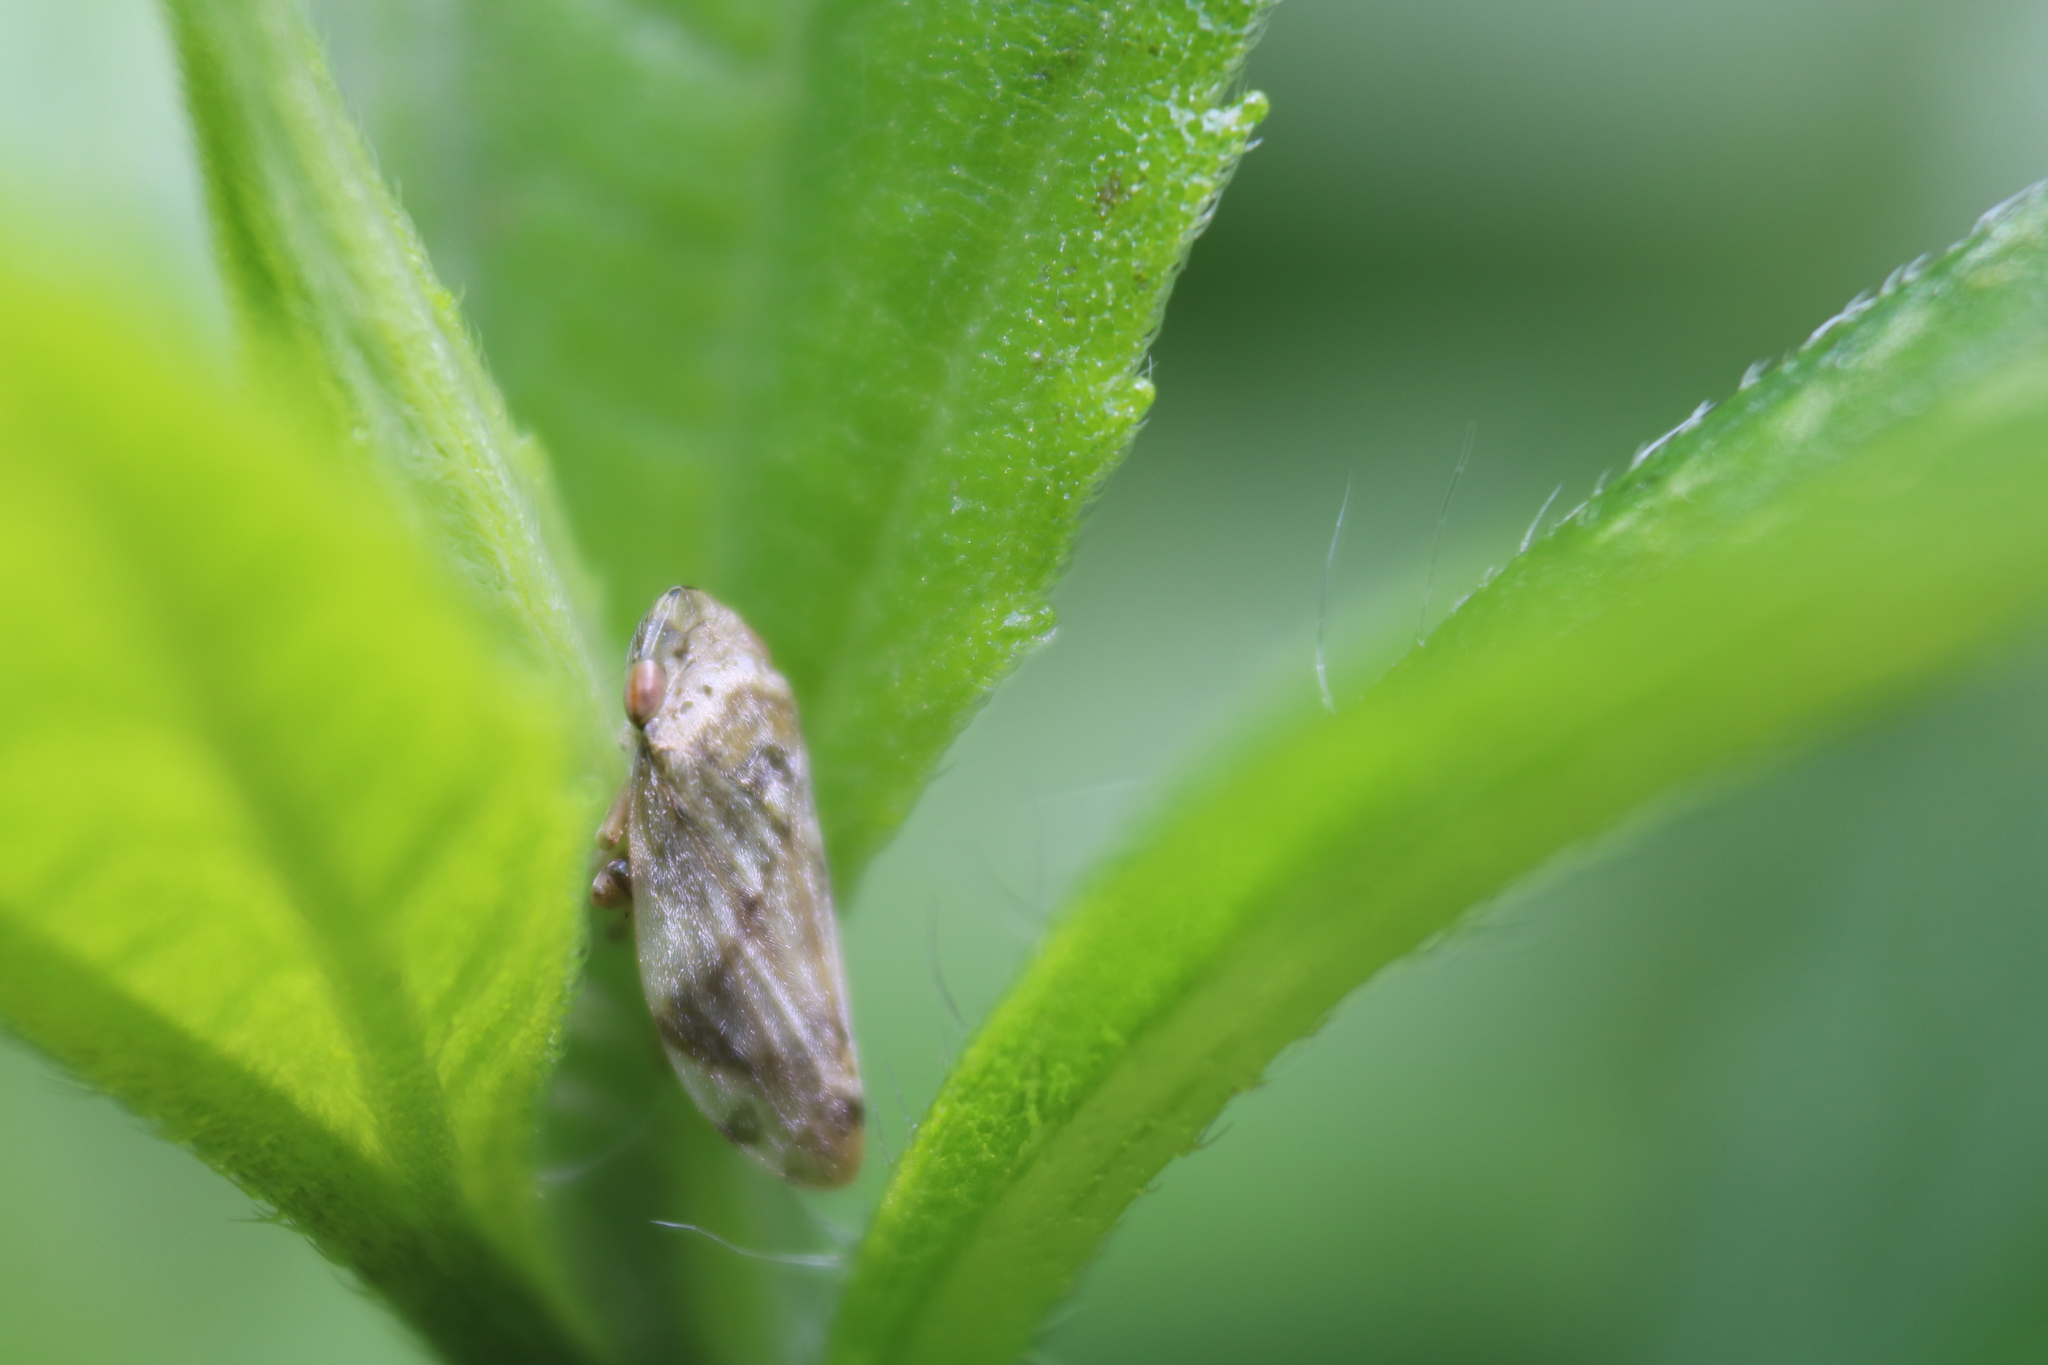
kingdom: Animalia
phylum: Arthropoda
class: Insecta
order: Hemiptera
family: Aphrophoridae
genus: Philaenus
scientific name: Philaenus spumarius
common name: Meadow spittlebug
